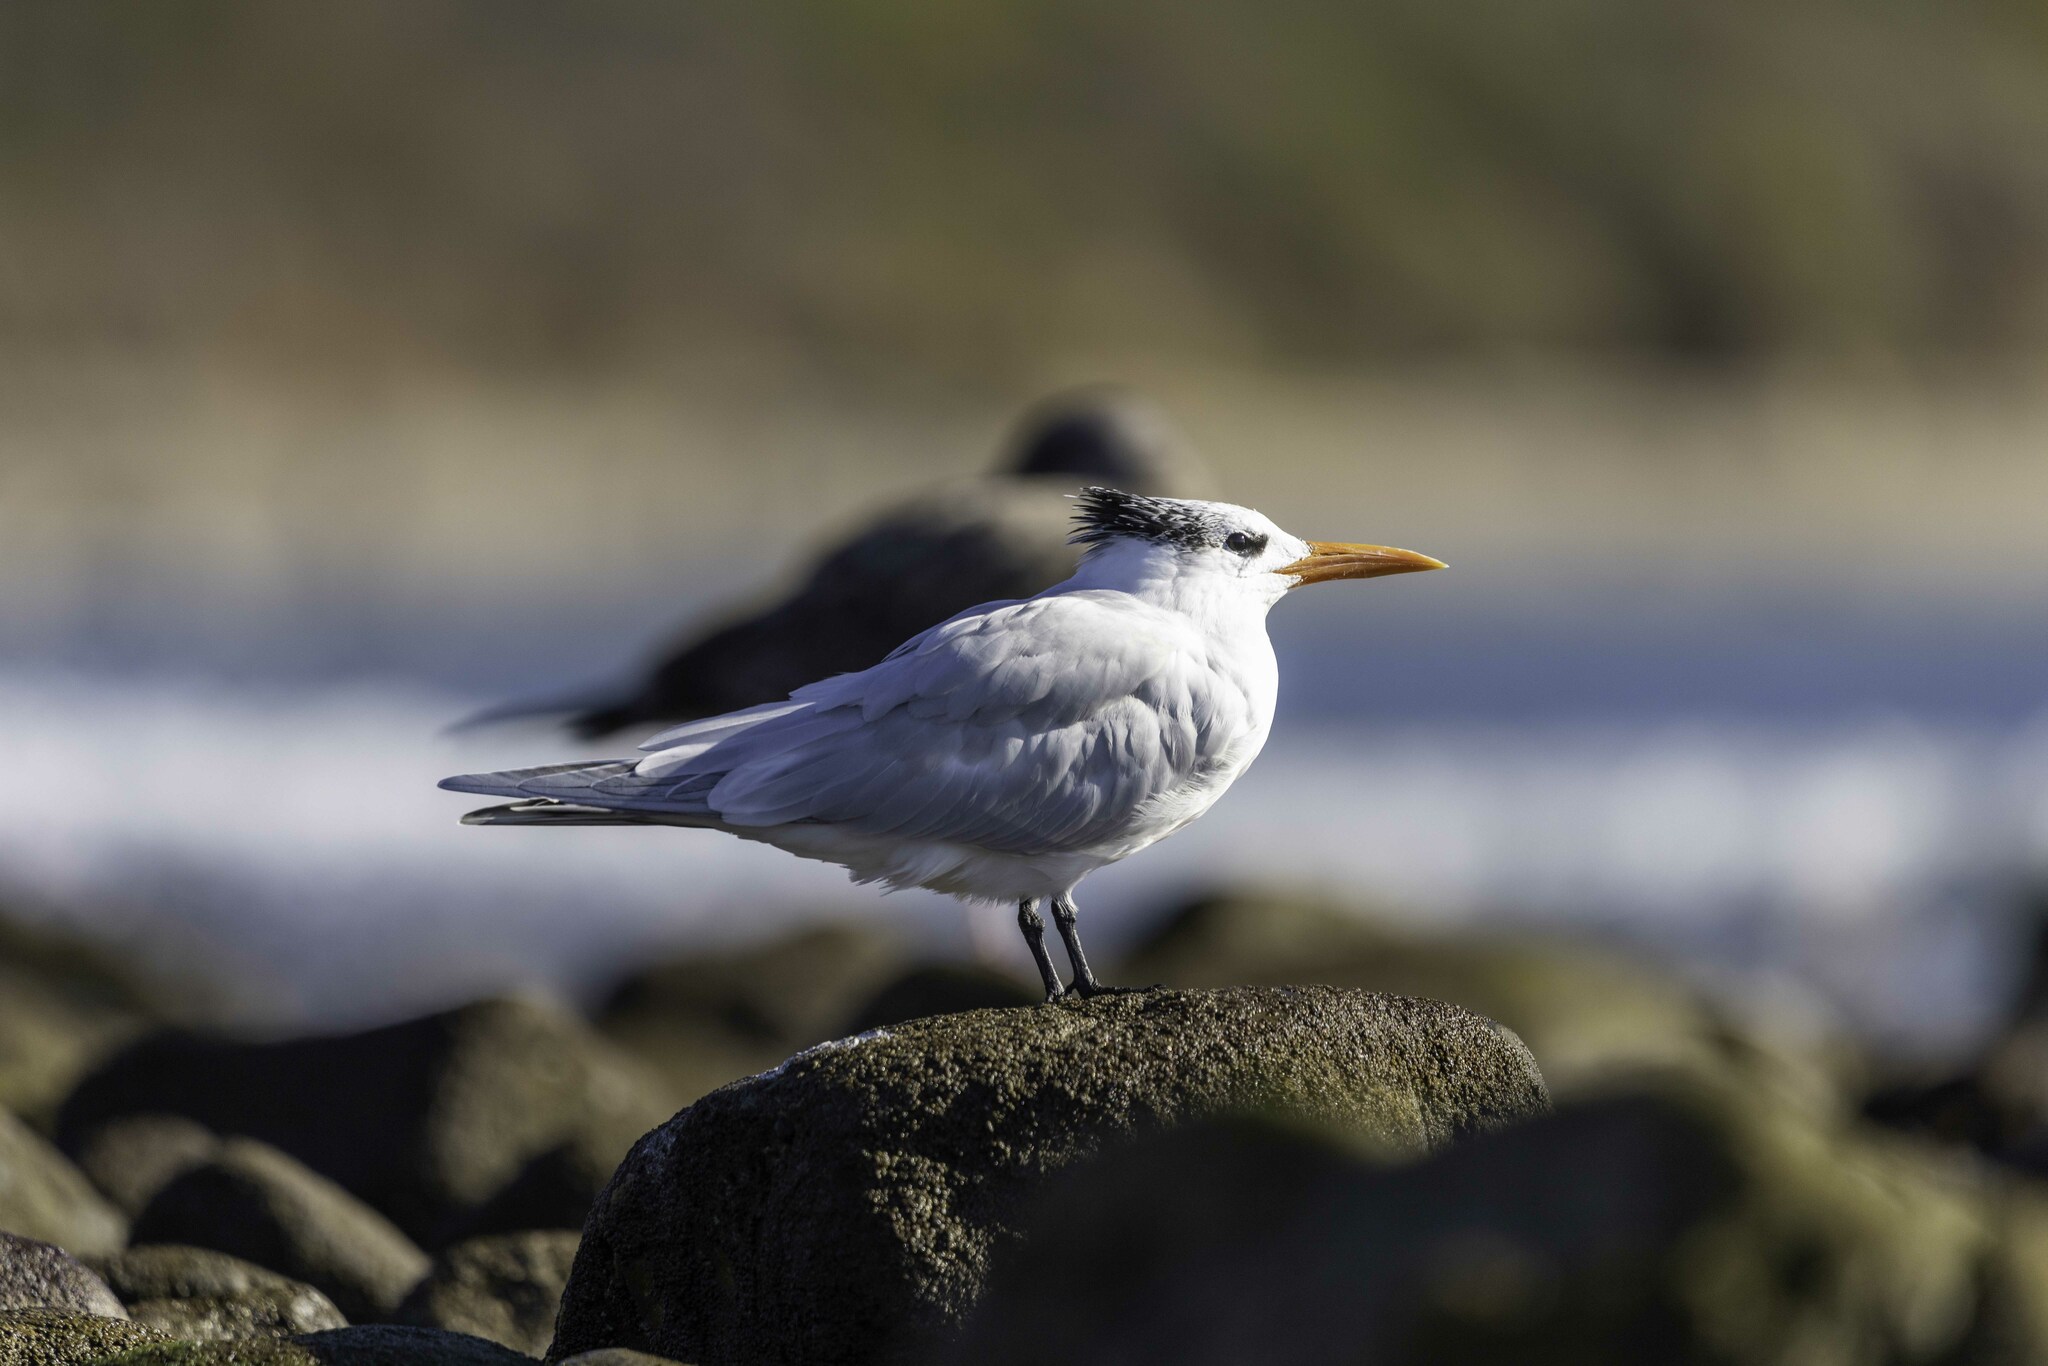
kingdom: Animalia
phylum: Chordata
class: Aves
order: Charadriiformes
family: Laridae
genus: Thalasseus
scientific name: Thalasseus maximus
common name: Royal tern
